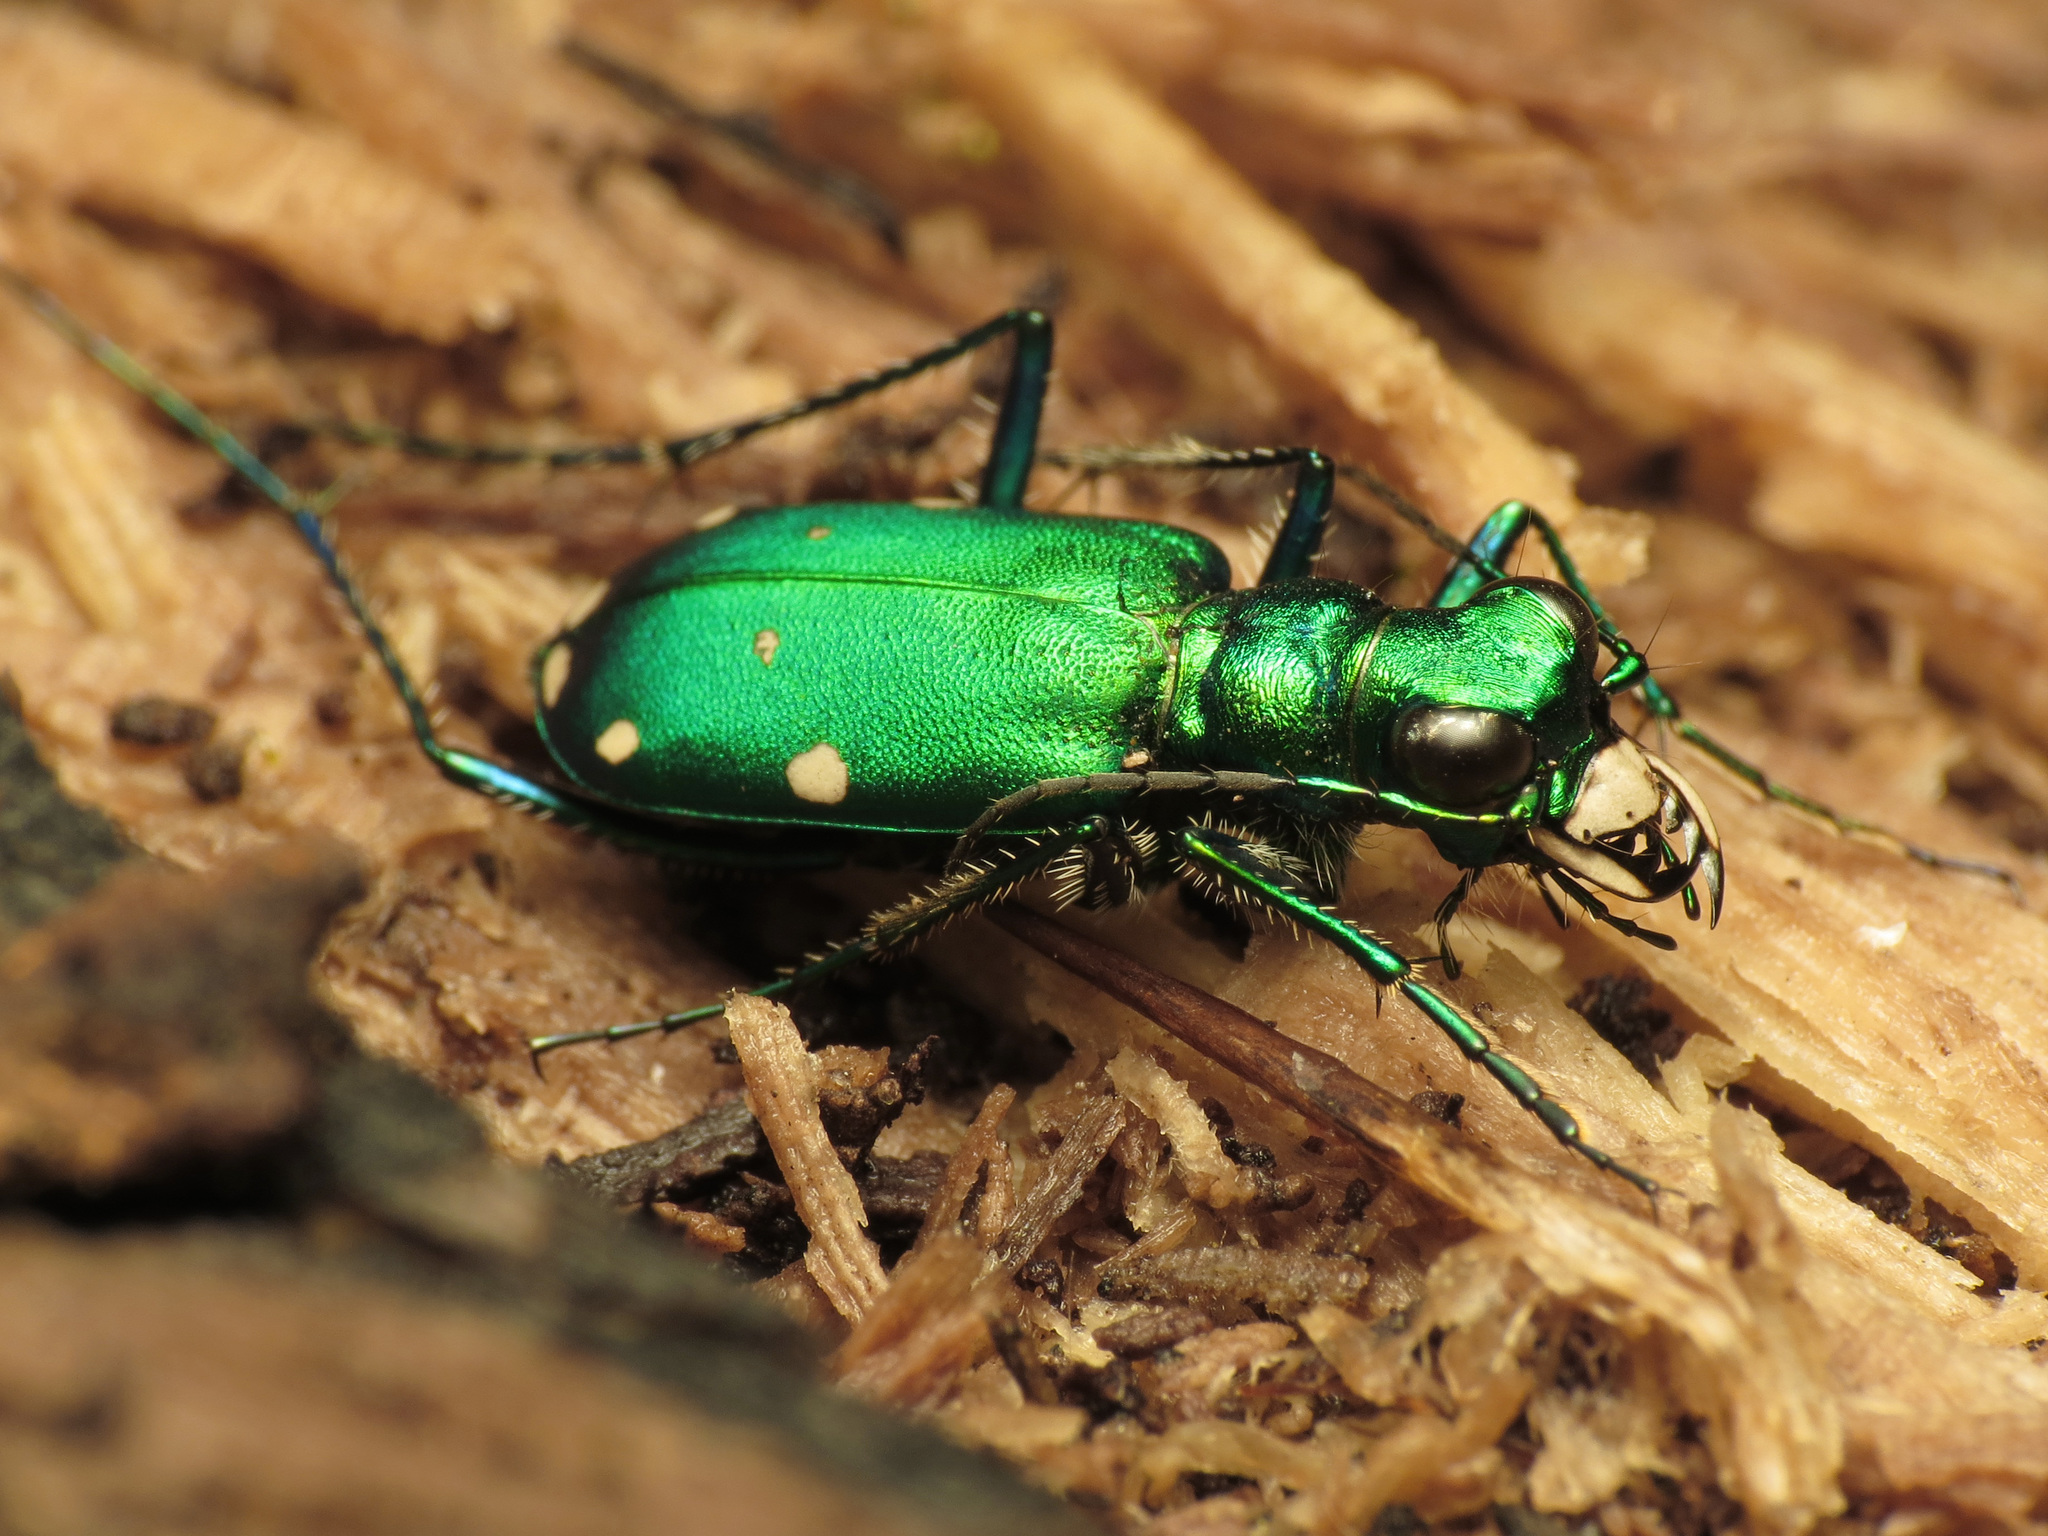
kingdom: Animalia
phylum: Arthropoda
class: Insecta
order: Coleoptera
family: Carabidae
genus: Cicindela
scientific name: Cicindela sexguttata
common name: Six-spotted tiger beetle
